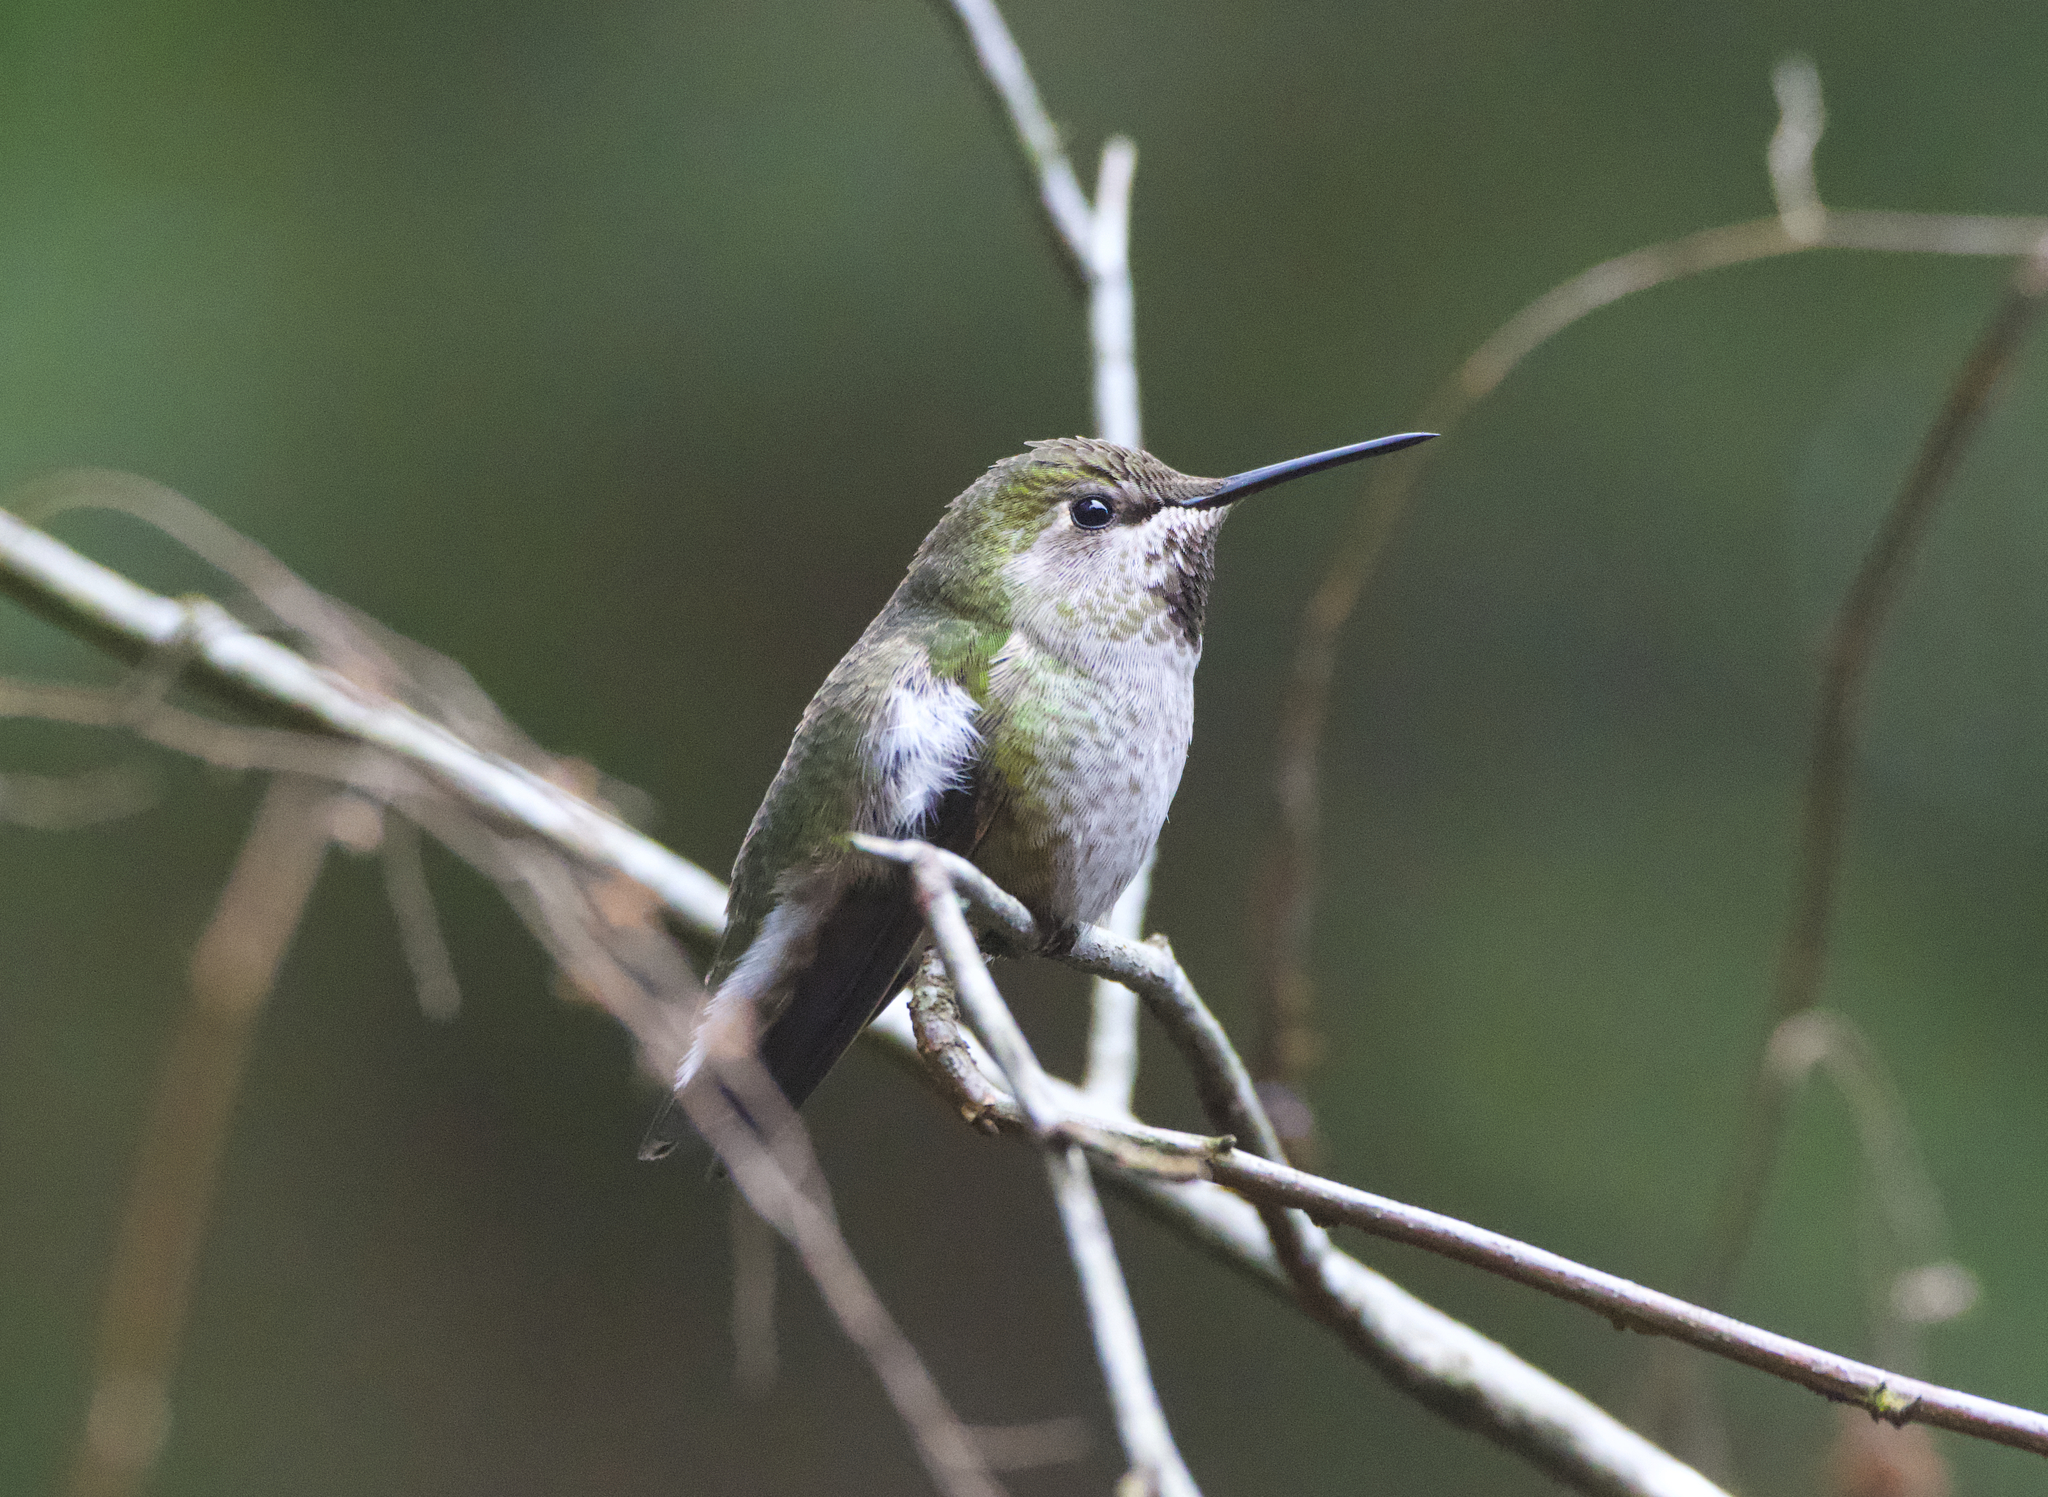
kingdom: Animalia
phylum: Chordata
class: Aves
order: Apodiformes
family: Trochilidae
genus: Calypte
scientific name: Calypte anna
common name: Anna's hummingbird
